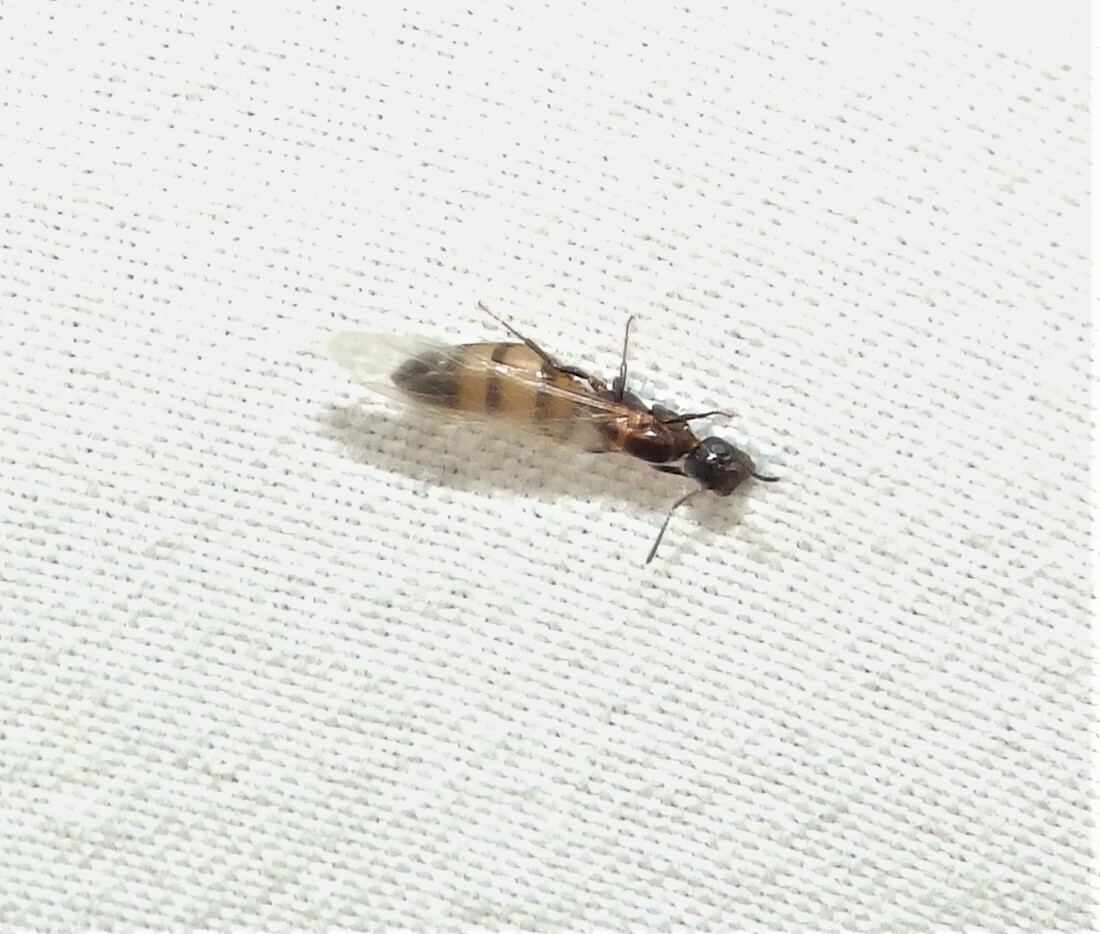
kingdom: Animalia
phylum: Arthropoda
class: Insecta
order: Hymenoptera
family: Formicidae
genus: Colobopsis
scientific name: Colobopsis impressa
